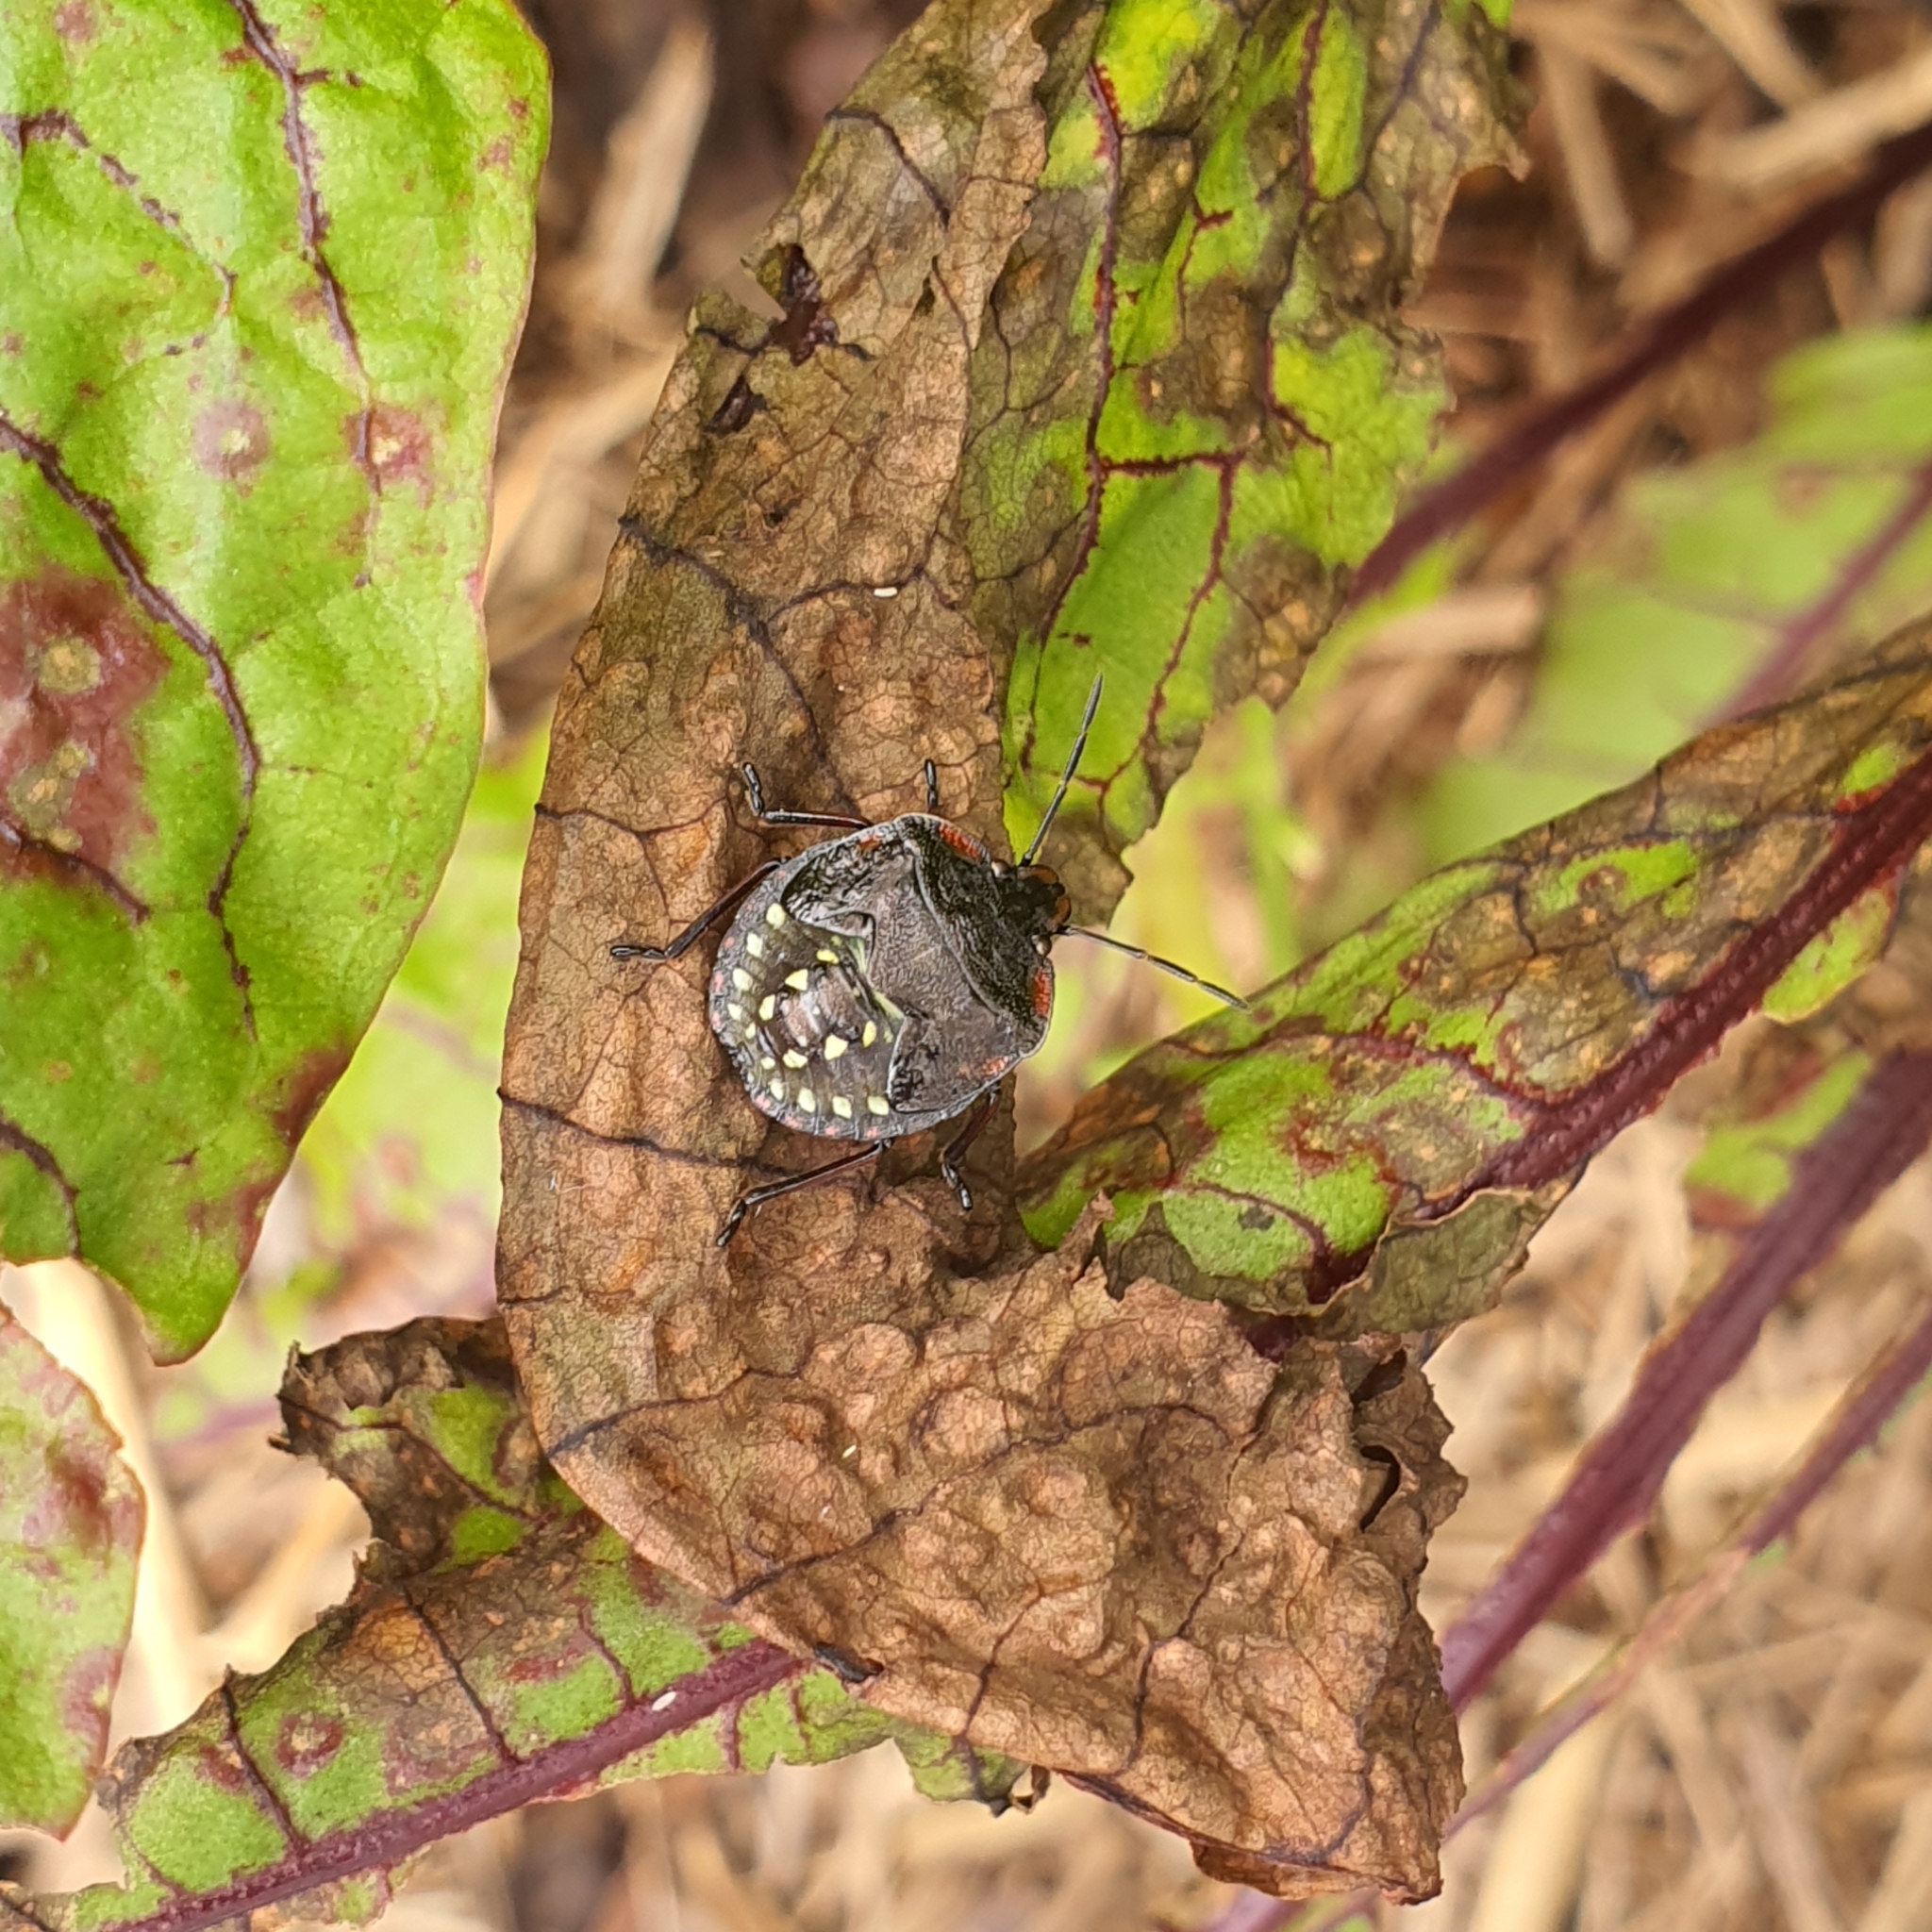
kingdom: Animalia
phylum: Arthropoda
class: Insecta
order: Hemiptera
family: Pentatomidae
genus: Nezara
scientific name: Nezara viridula
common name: Southern green stink bug
